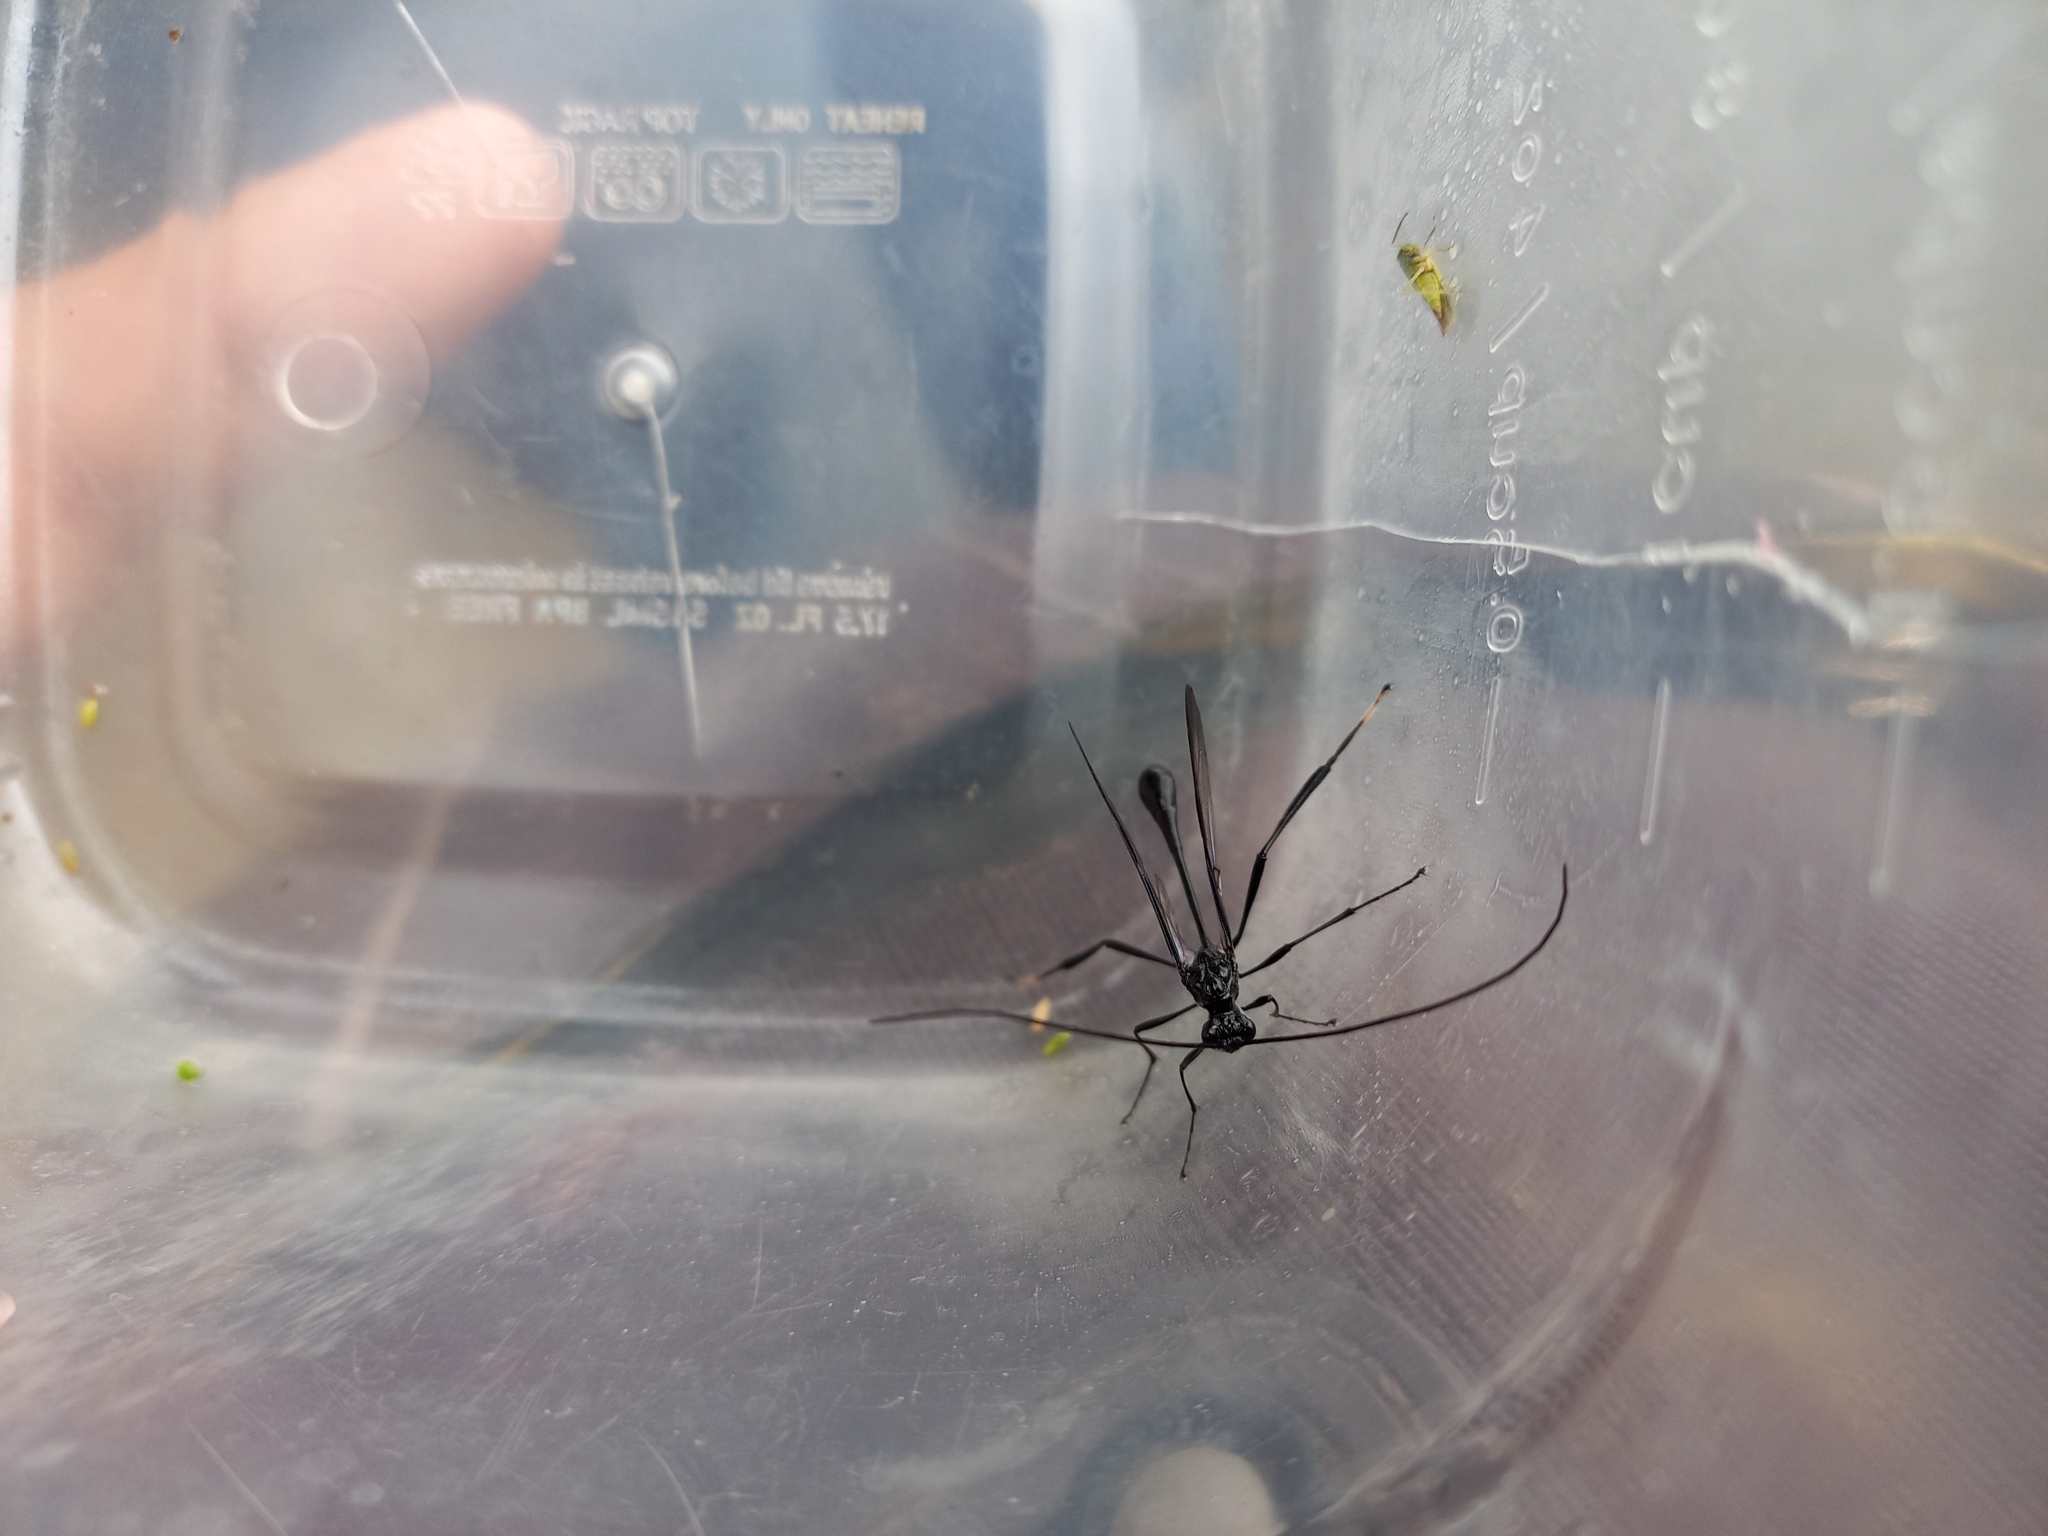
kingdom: Animalia
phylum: Arthropoda
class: Insecta
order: Hymenoptera
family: Pelecinidae
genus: Pelecinus
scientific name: Pelecinus polyturator
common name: American pelecinid wasp
